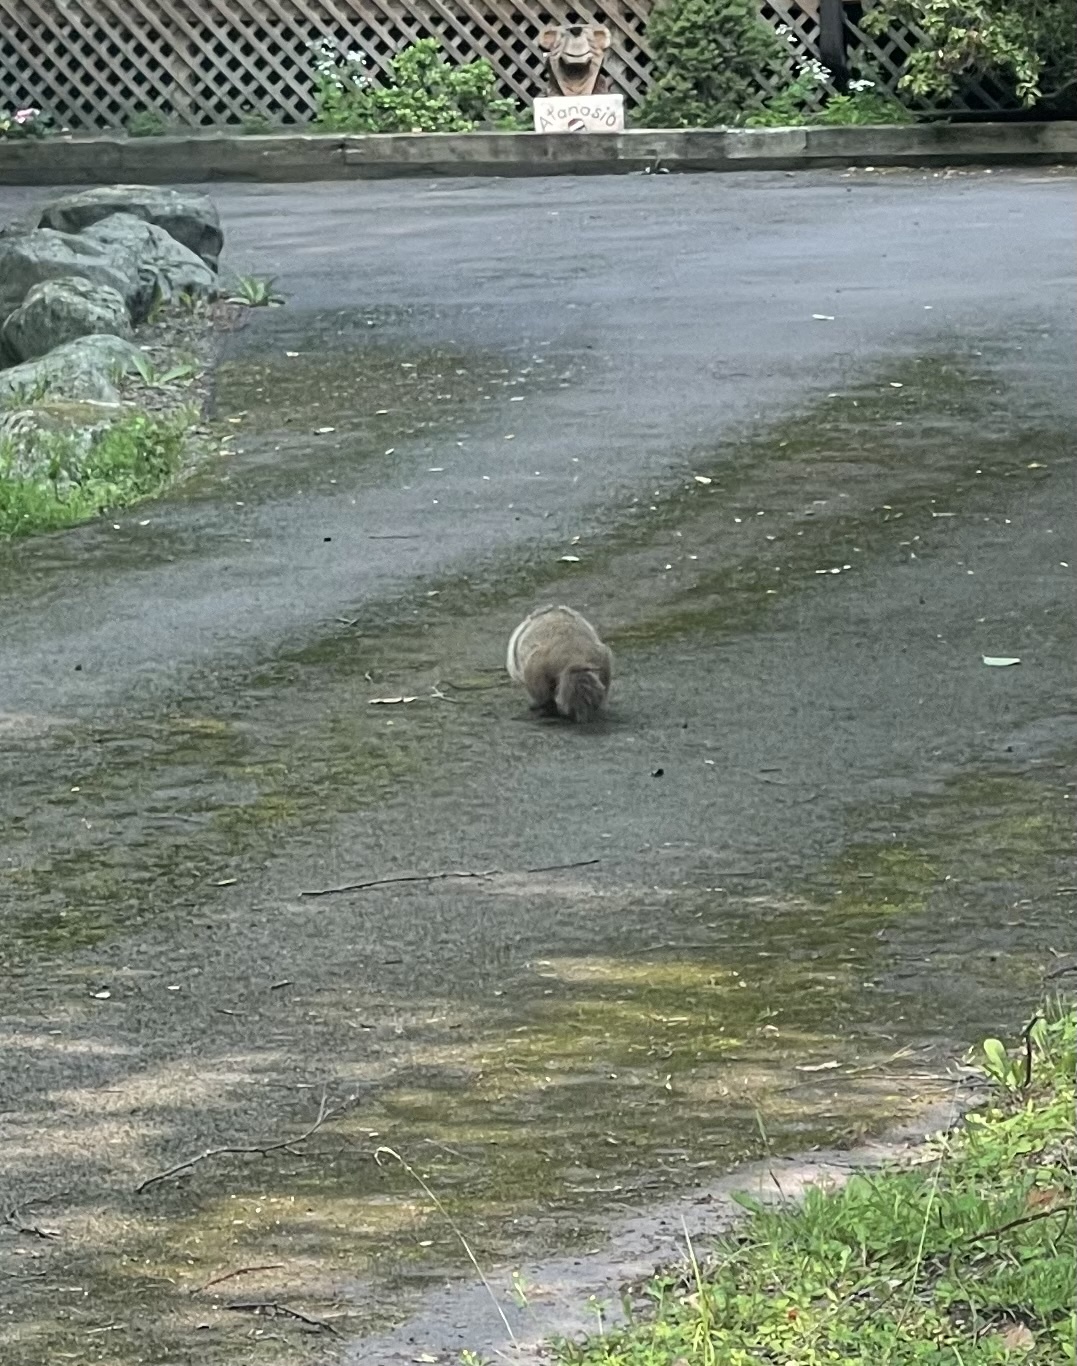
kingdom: Animalia
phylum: Chordata
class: Mammalia
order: Rodentia
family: Sciuridae
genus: Marmota
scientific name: Marmota monax
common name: Groundhog
